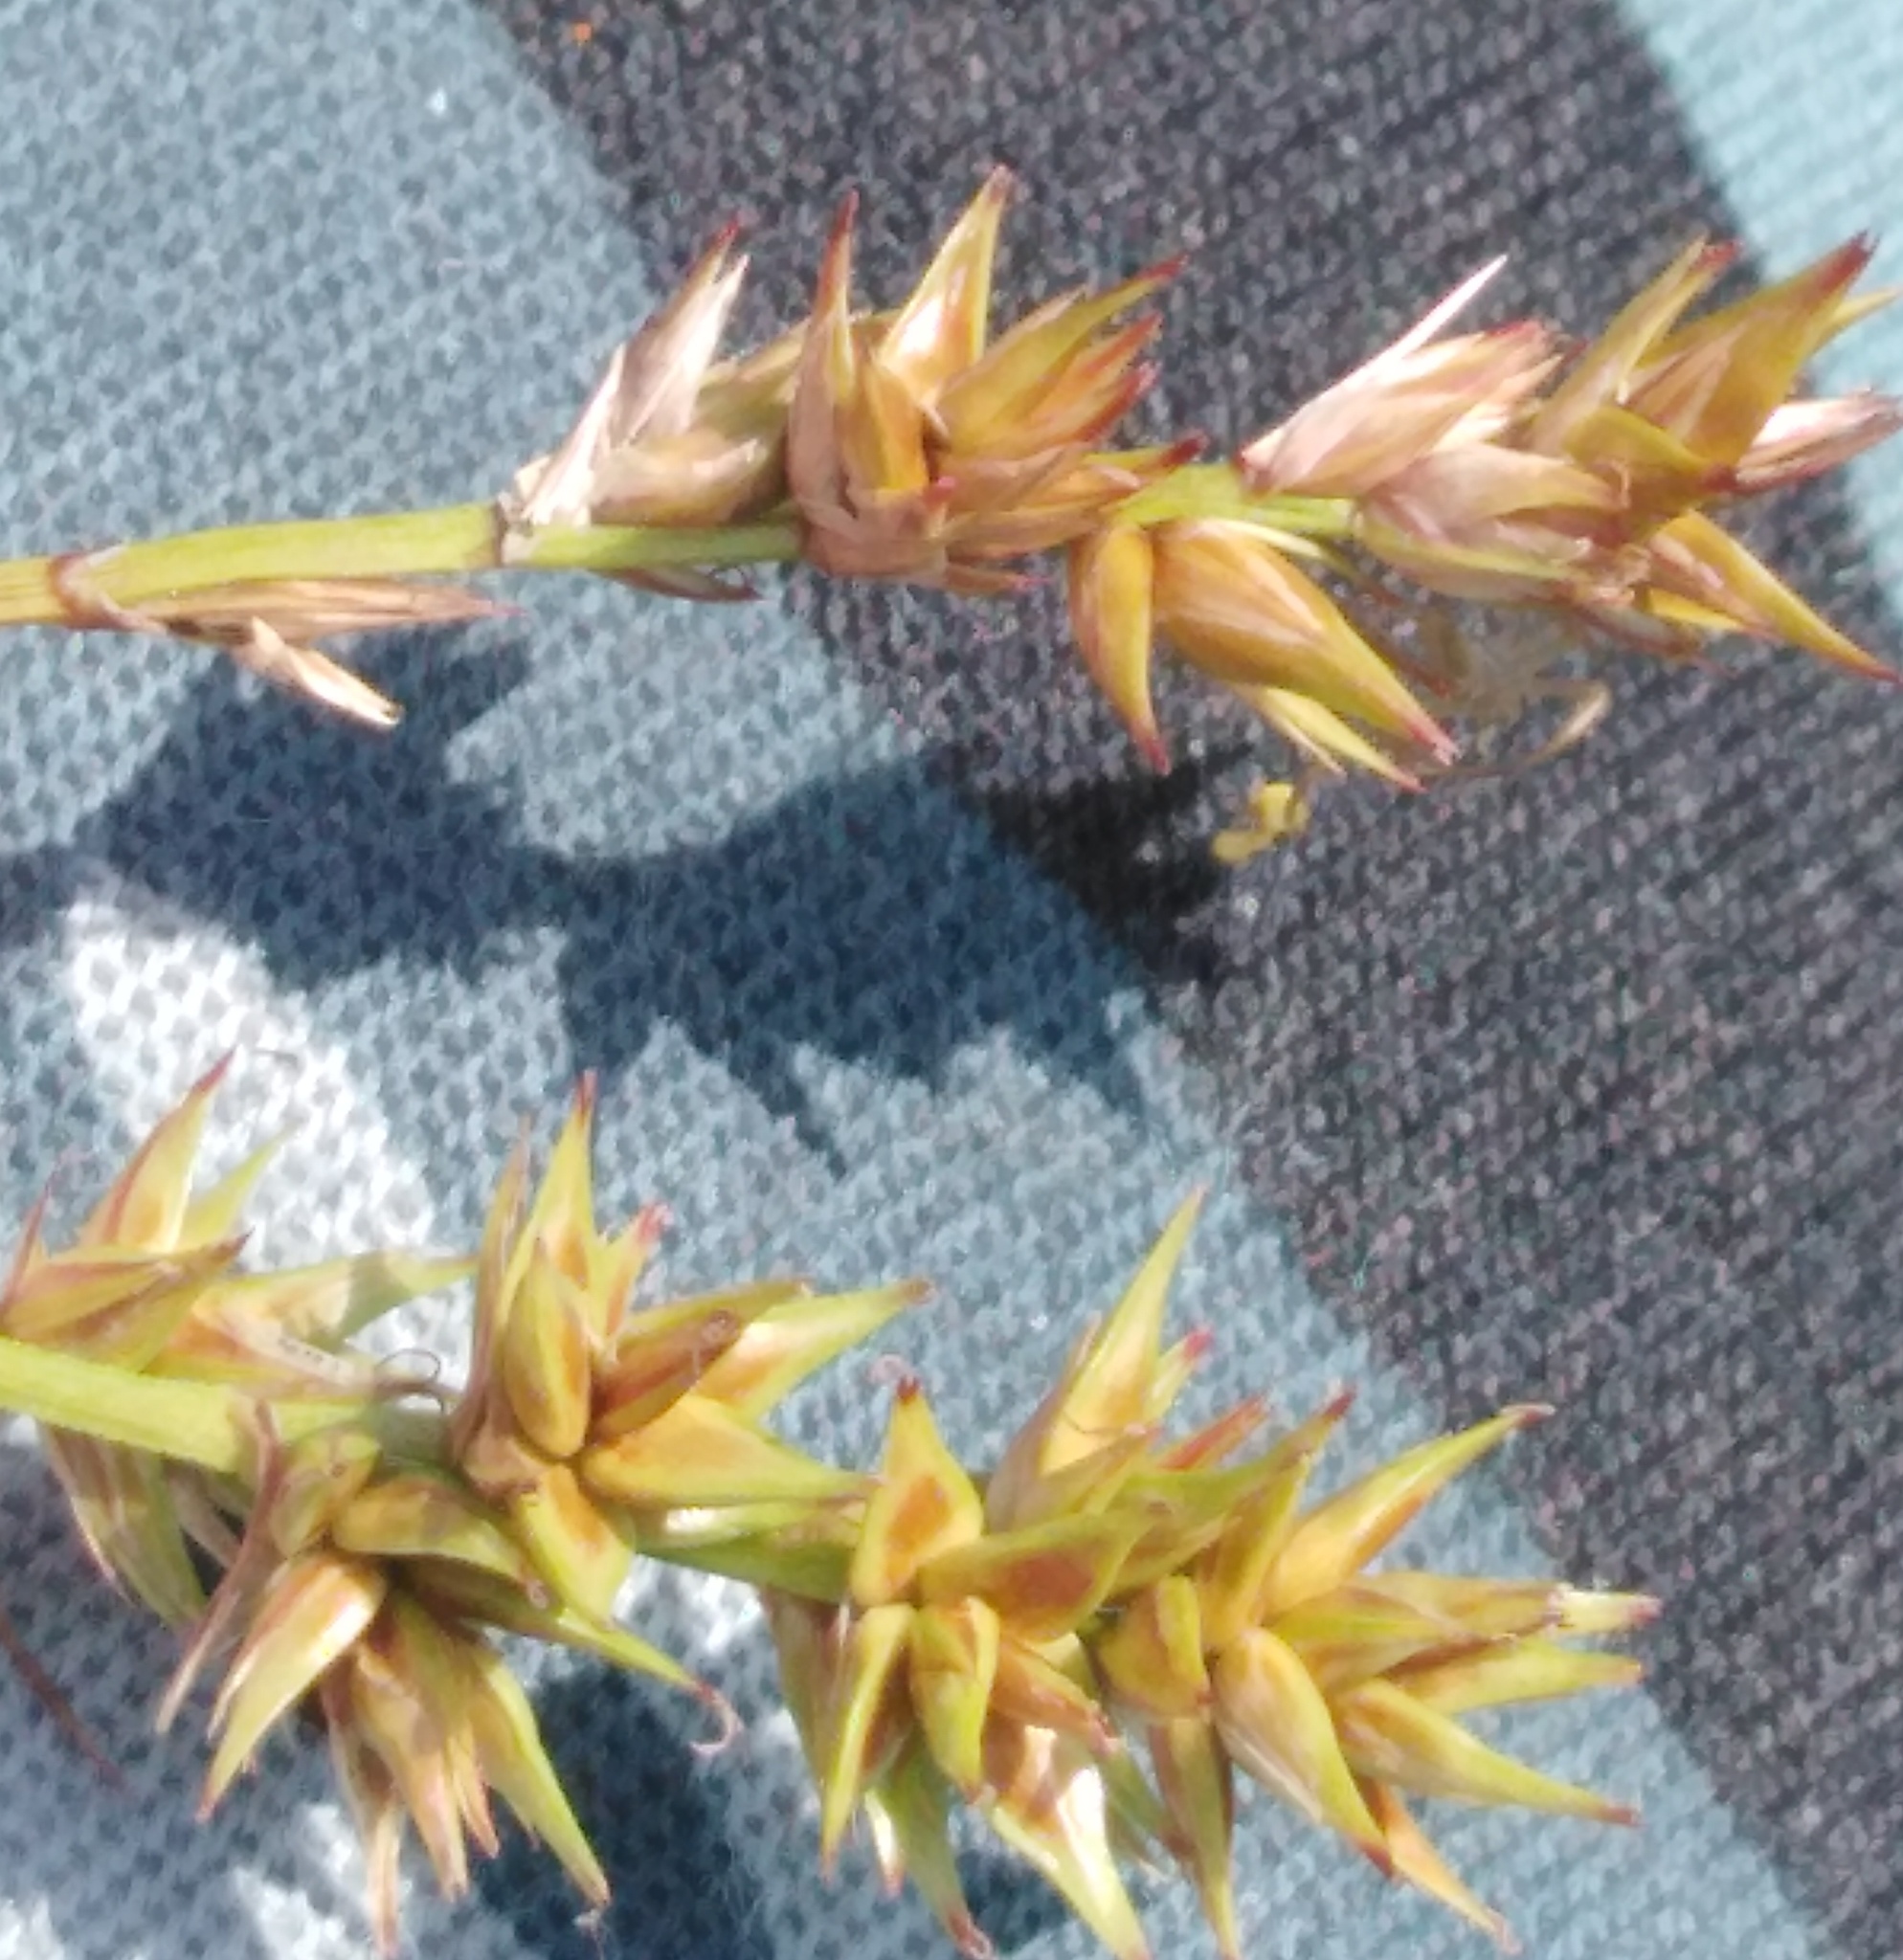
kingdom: Plantae
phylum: Tracheophyta
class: Liliopsida
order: Poales
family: Cyperaceae
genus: Carex
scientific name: Carex spicata
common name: Spiked sedge
